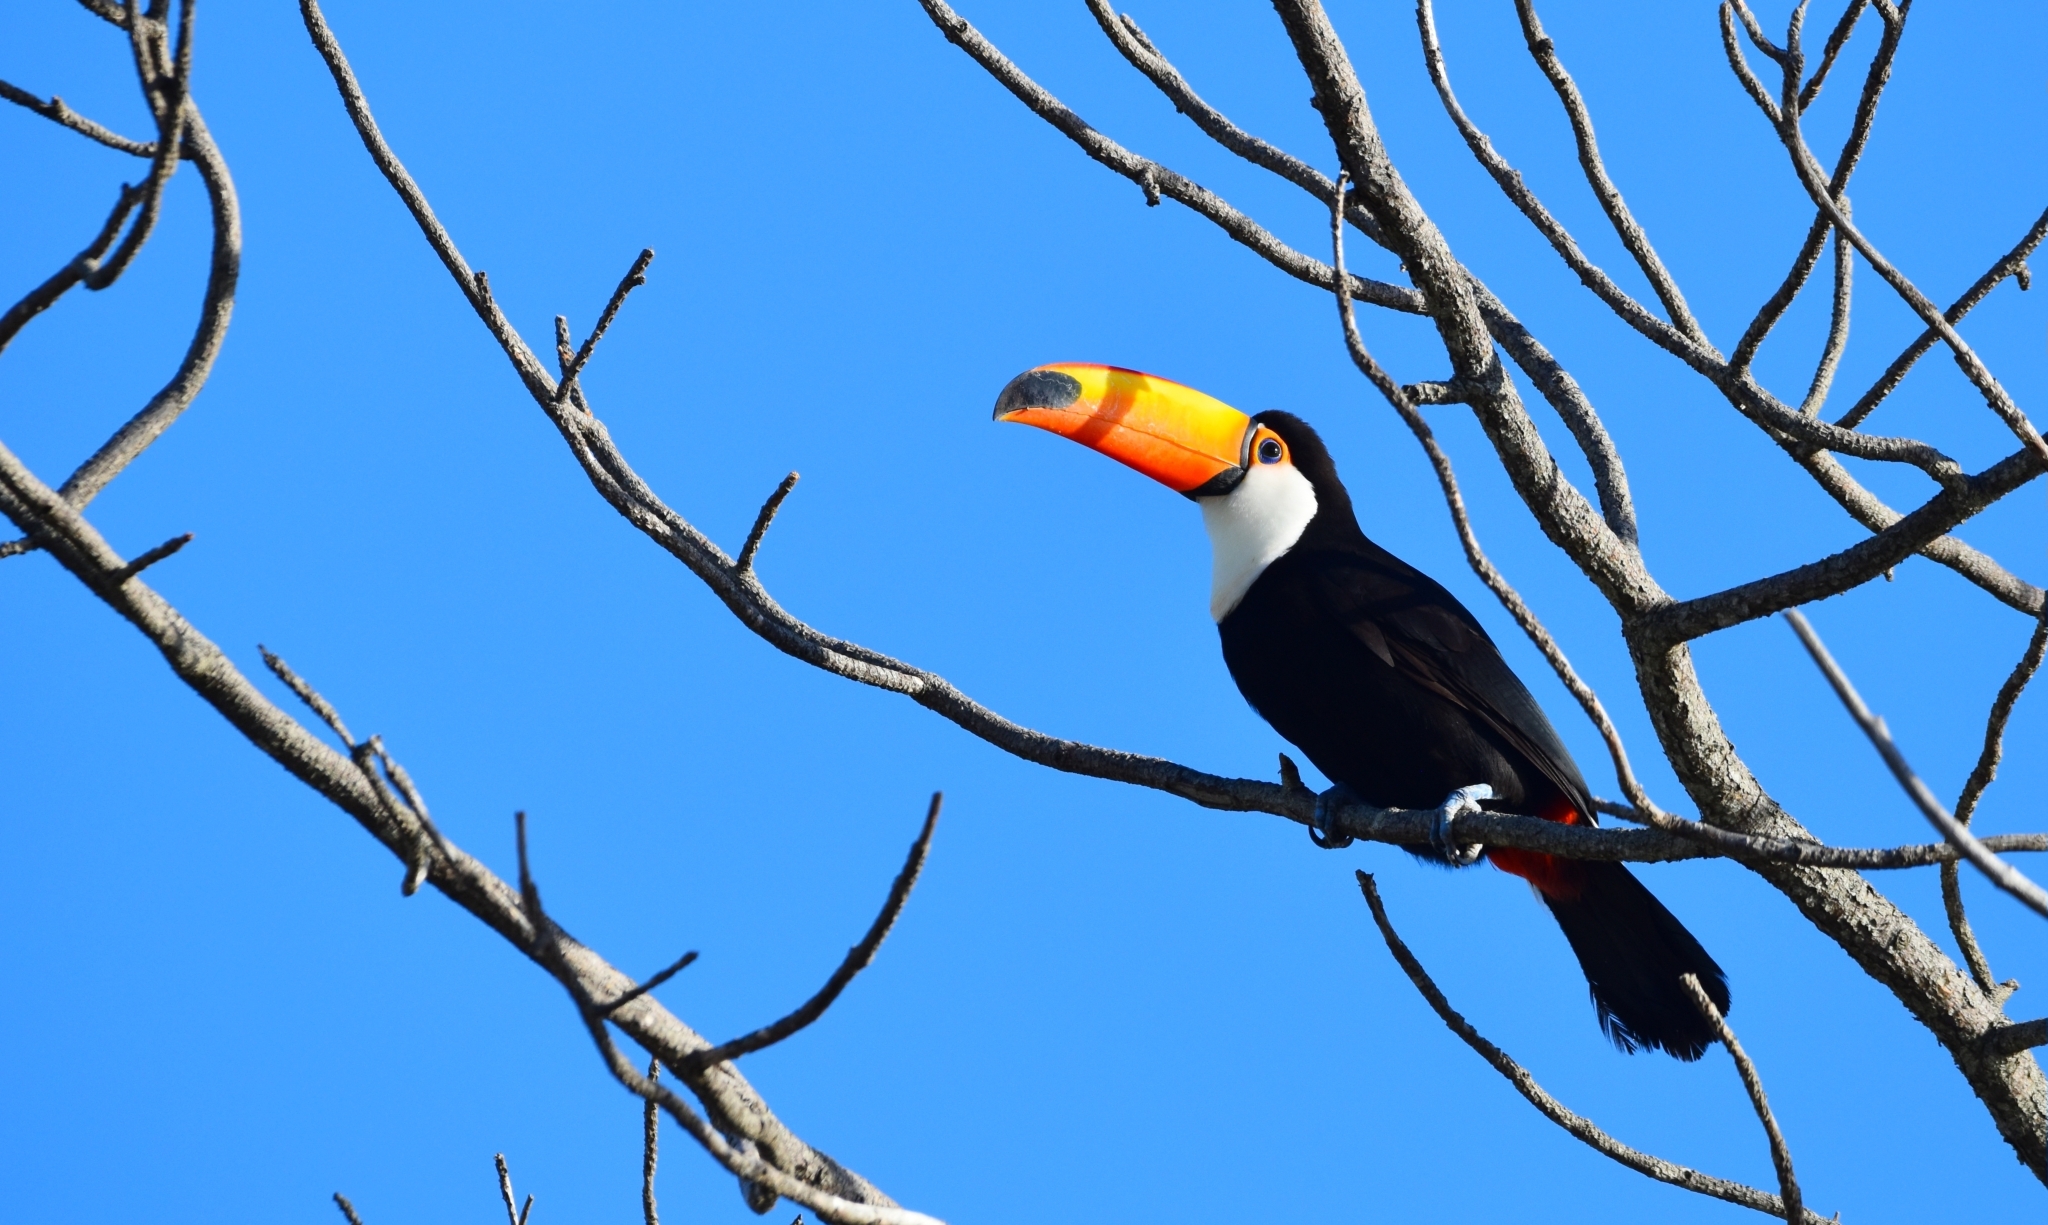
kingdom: Animalia
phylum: Chordata
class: Aves
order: Piciformes
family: Ramphastidae
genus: Ramphastos
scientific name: Ramphastos toco
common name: Toco toucan
